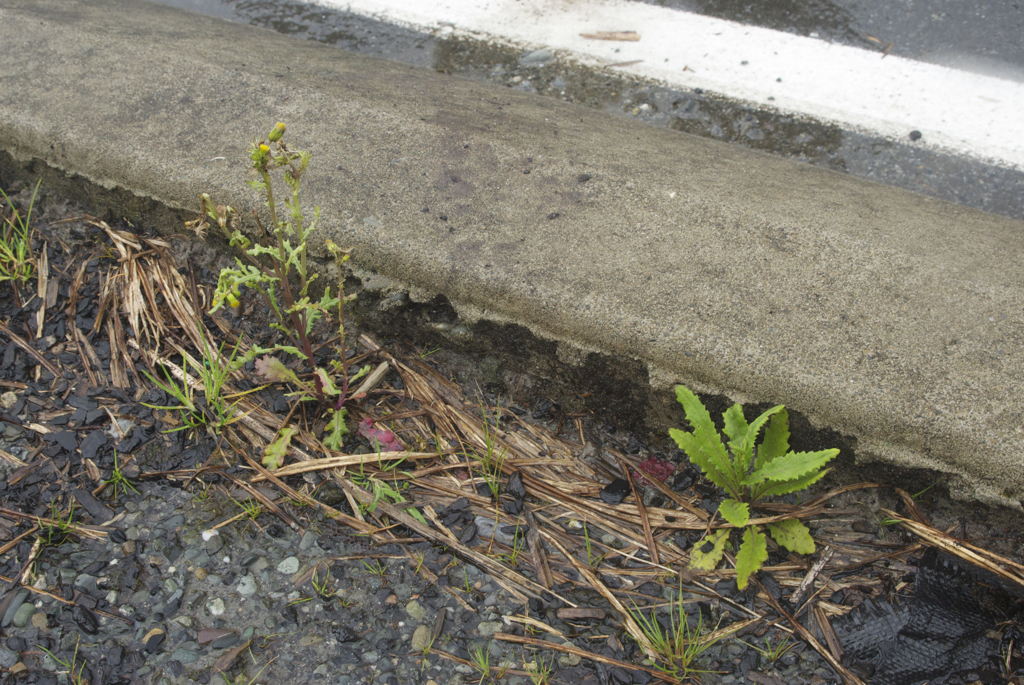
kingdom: Plantae
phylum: Tracheophyta
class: Magnoliopsida
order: Asterales
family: Asteraceae
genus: Senecio
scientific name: Senecio minimus
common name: Toothed fireweed
